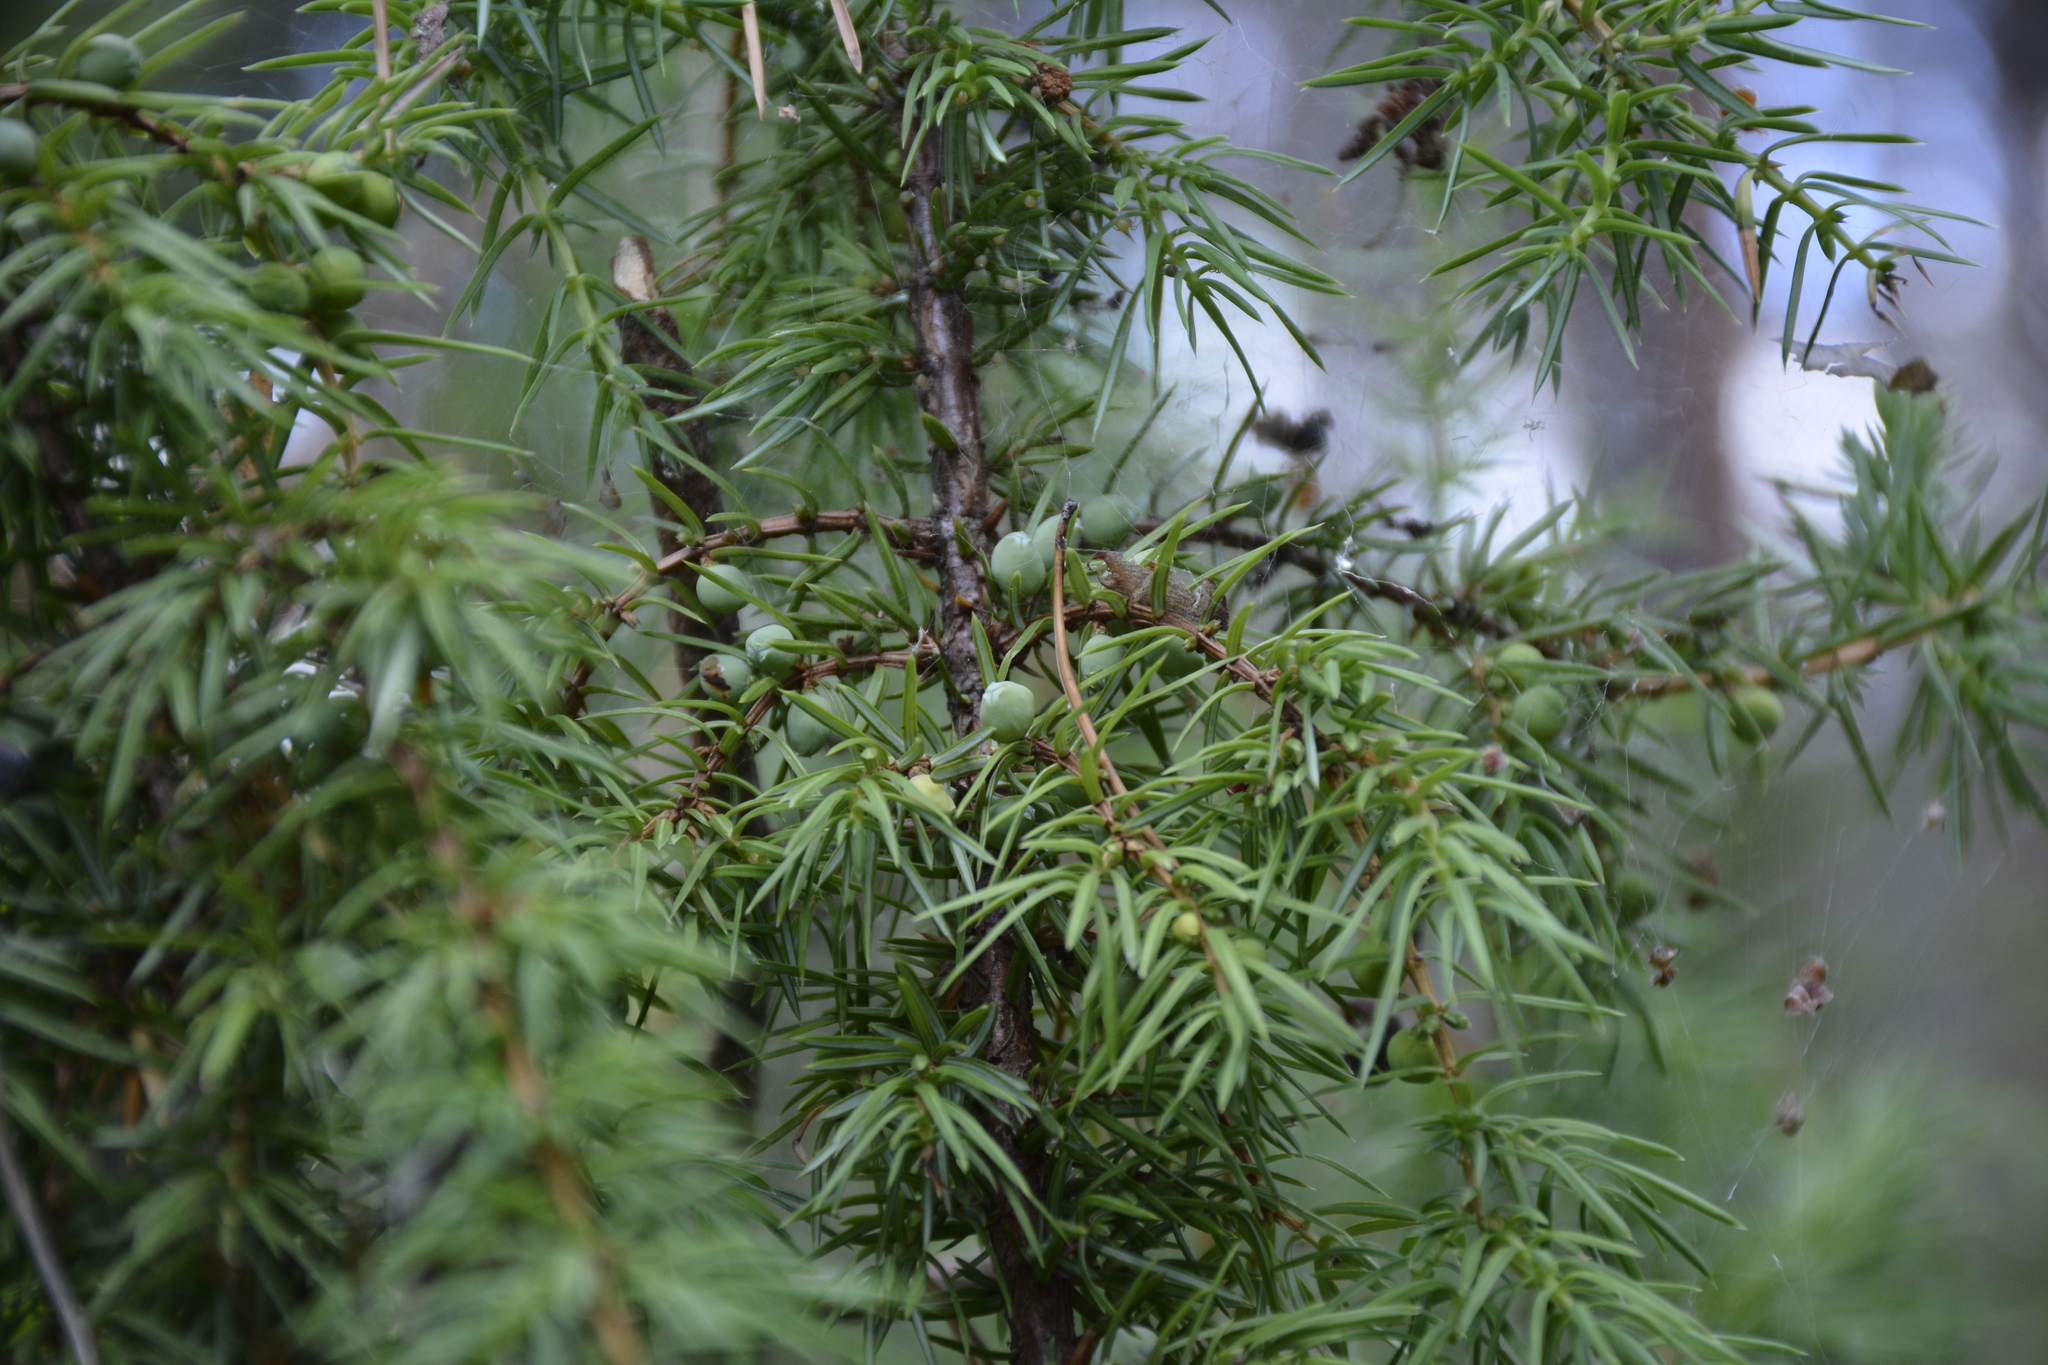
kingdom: Plantae
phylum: Tracheophyta
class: Pinopsida
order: Pinales
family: Cupressaceae
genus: Juniperus
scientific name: Juniperus communis
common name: Common juniper
